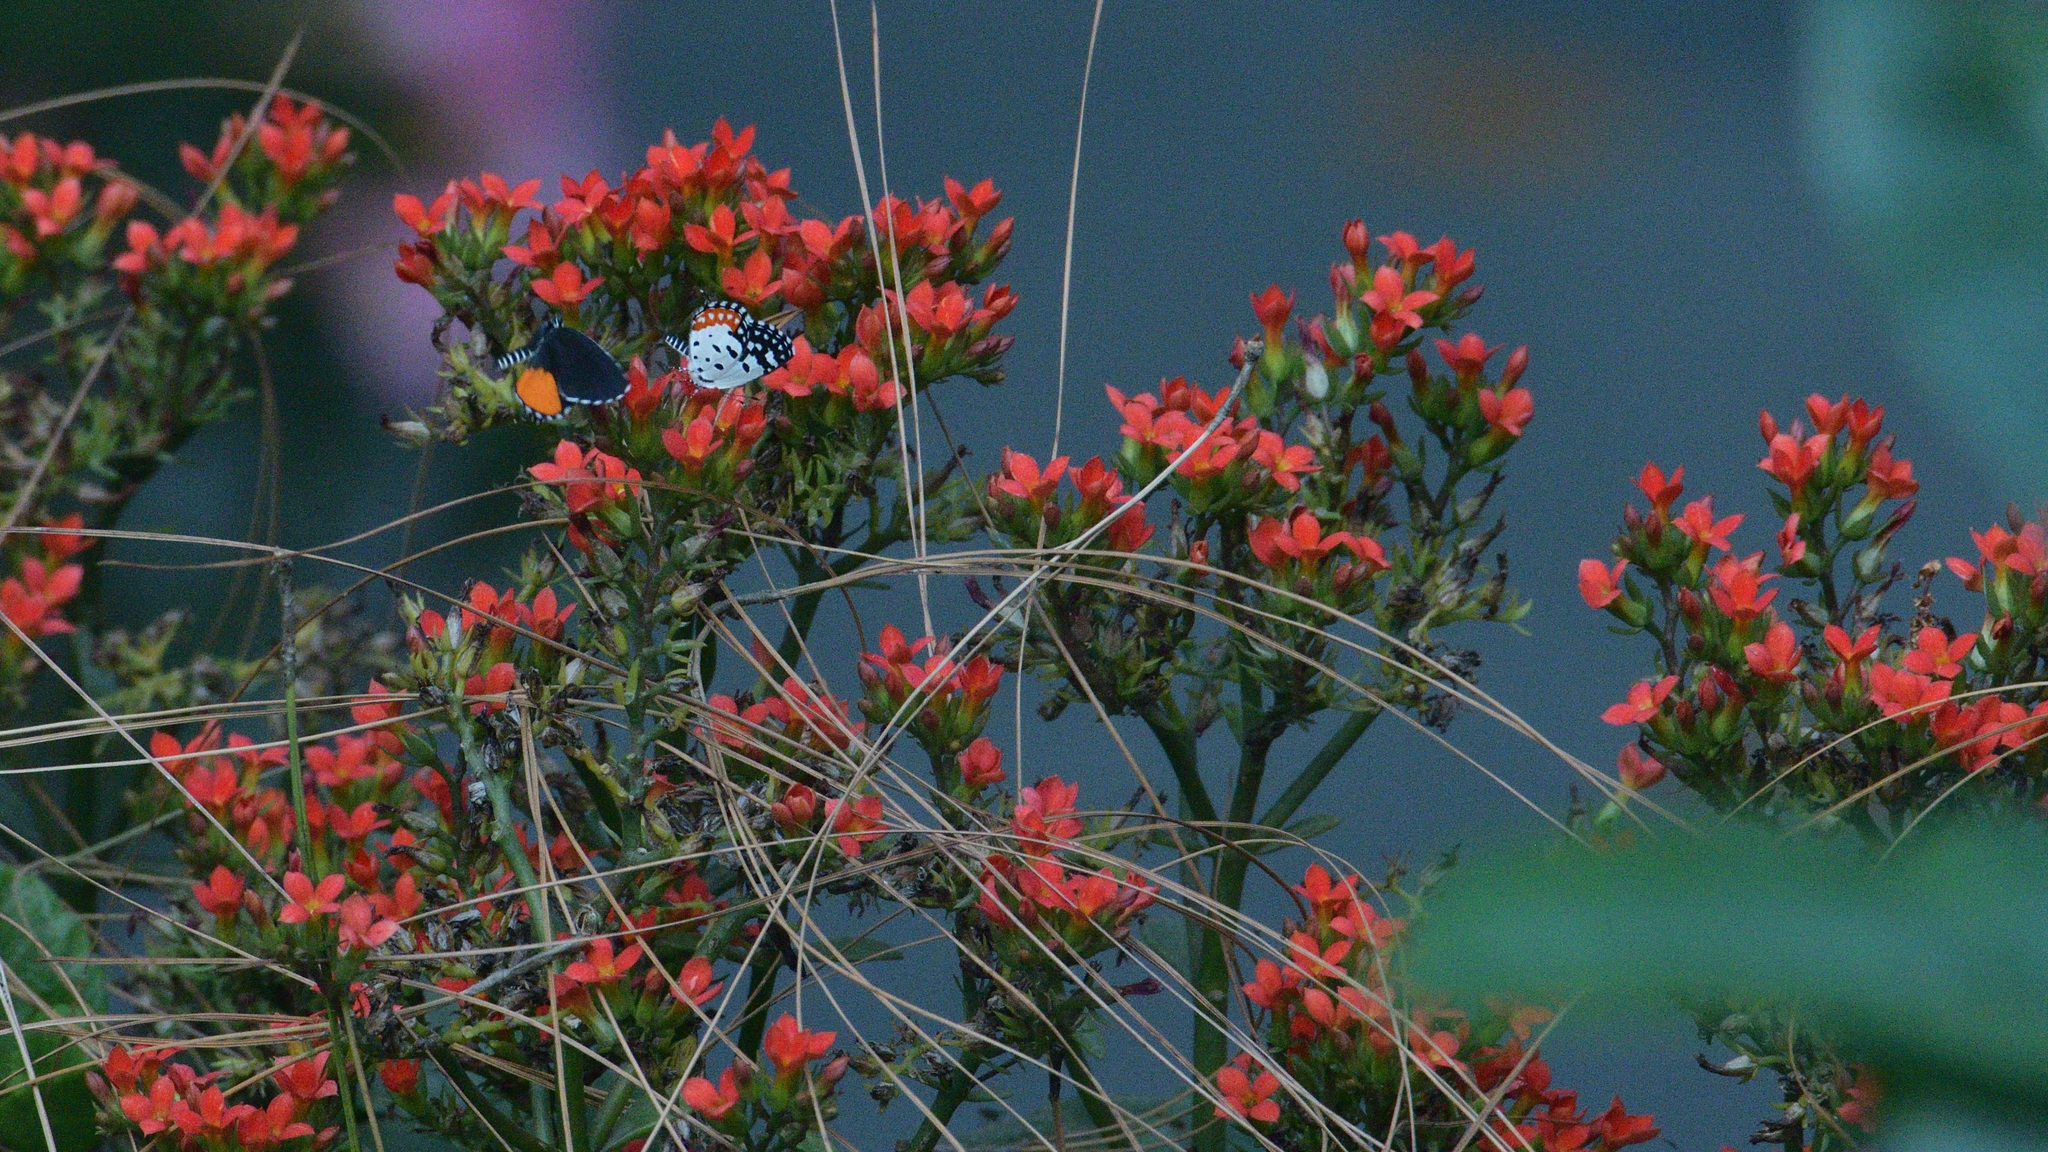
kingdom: Animalia
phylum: Arthropoda
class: Insecta
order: Lepidoptera
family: Lycaenidae
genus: Talicada
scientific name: Talicada nyseus
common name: Red pierrot
